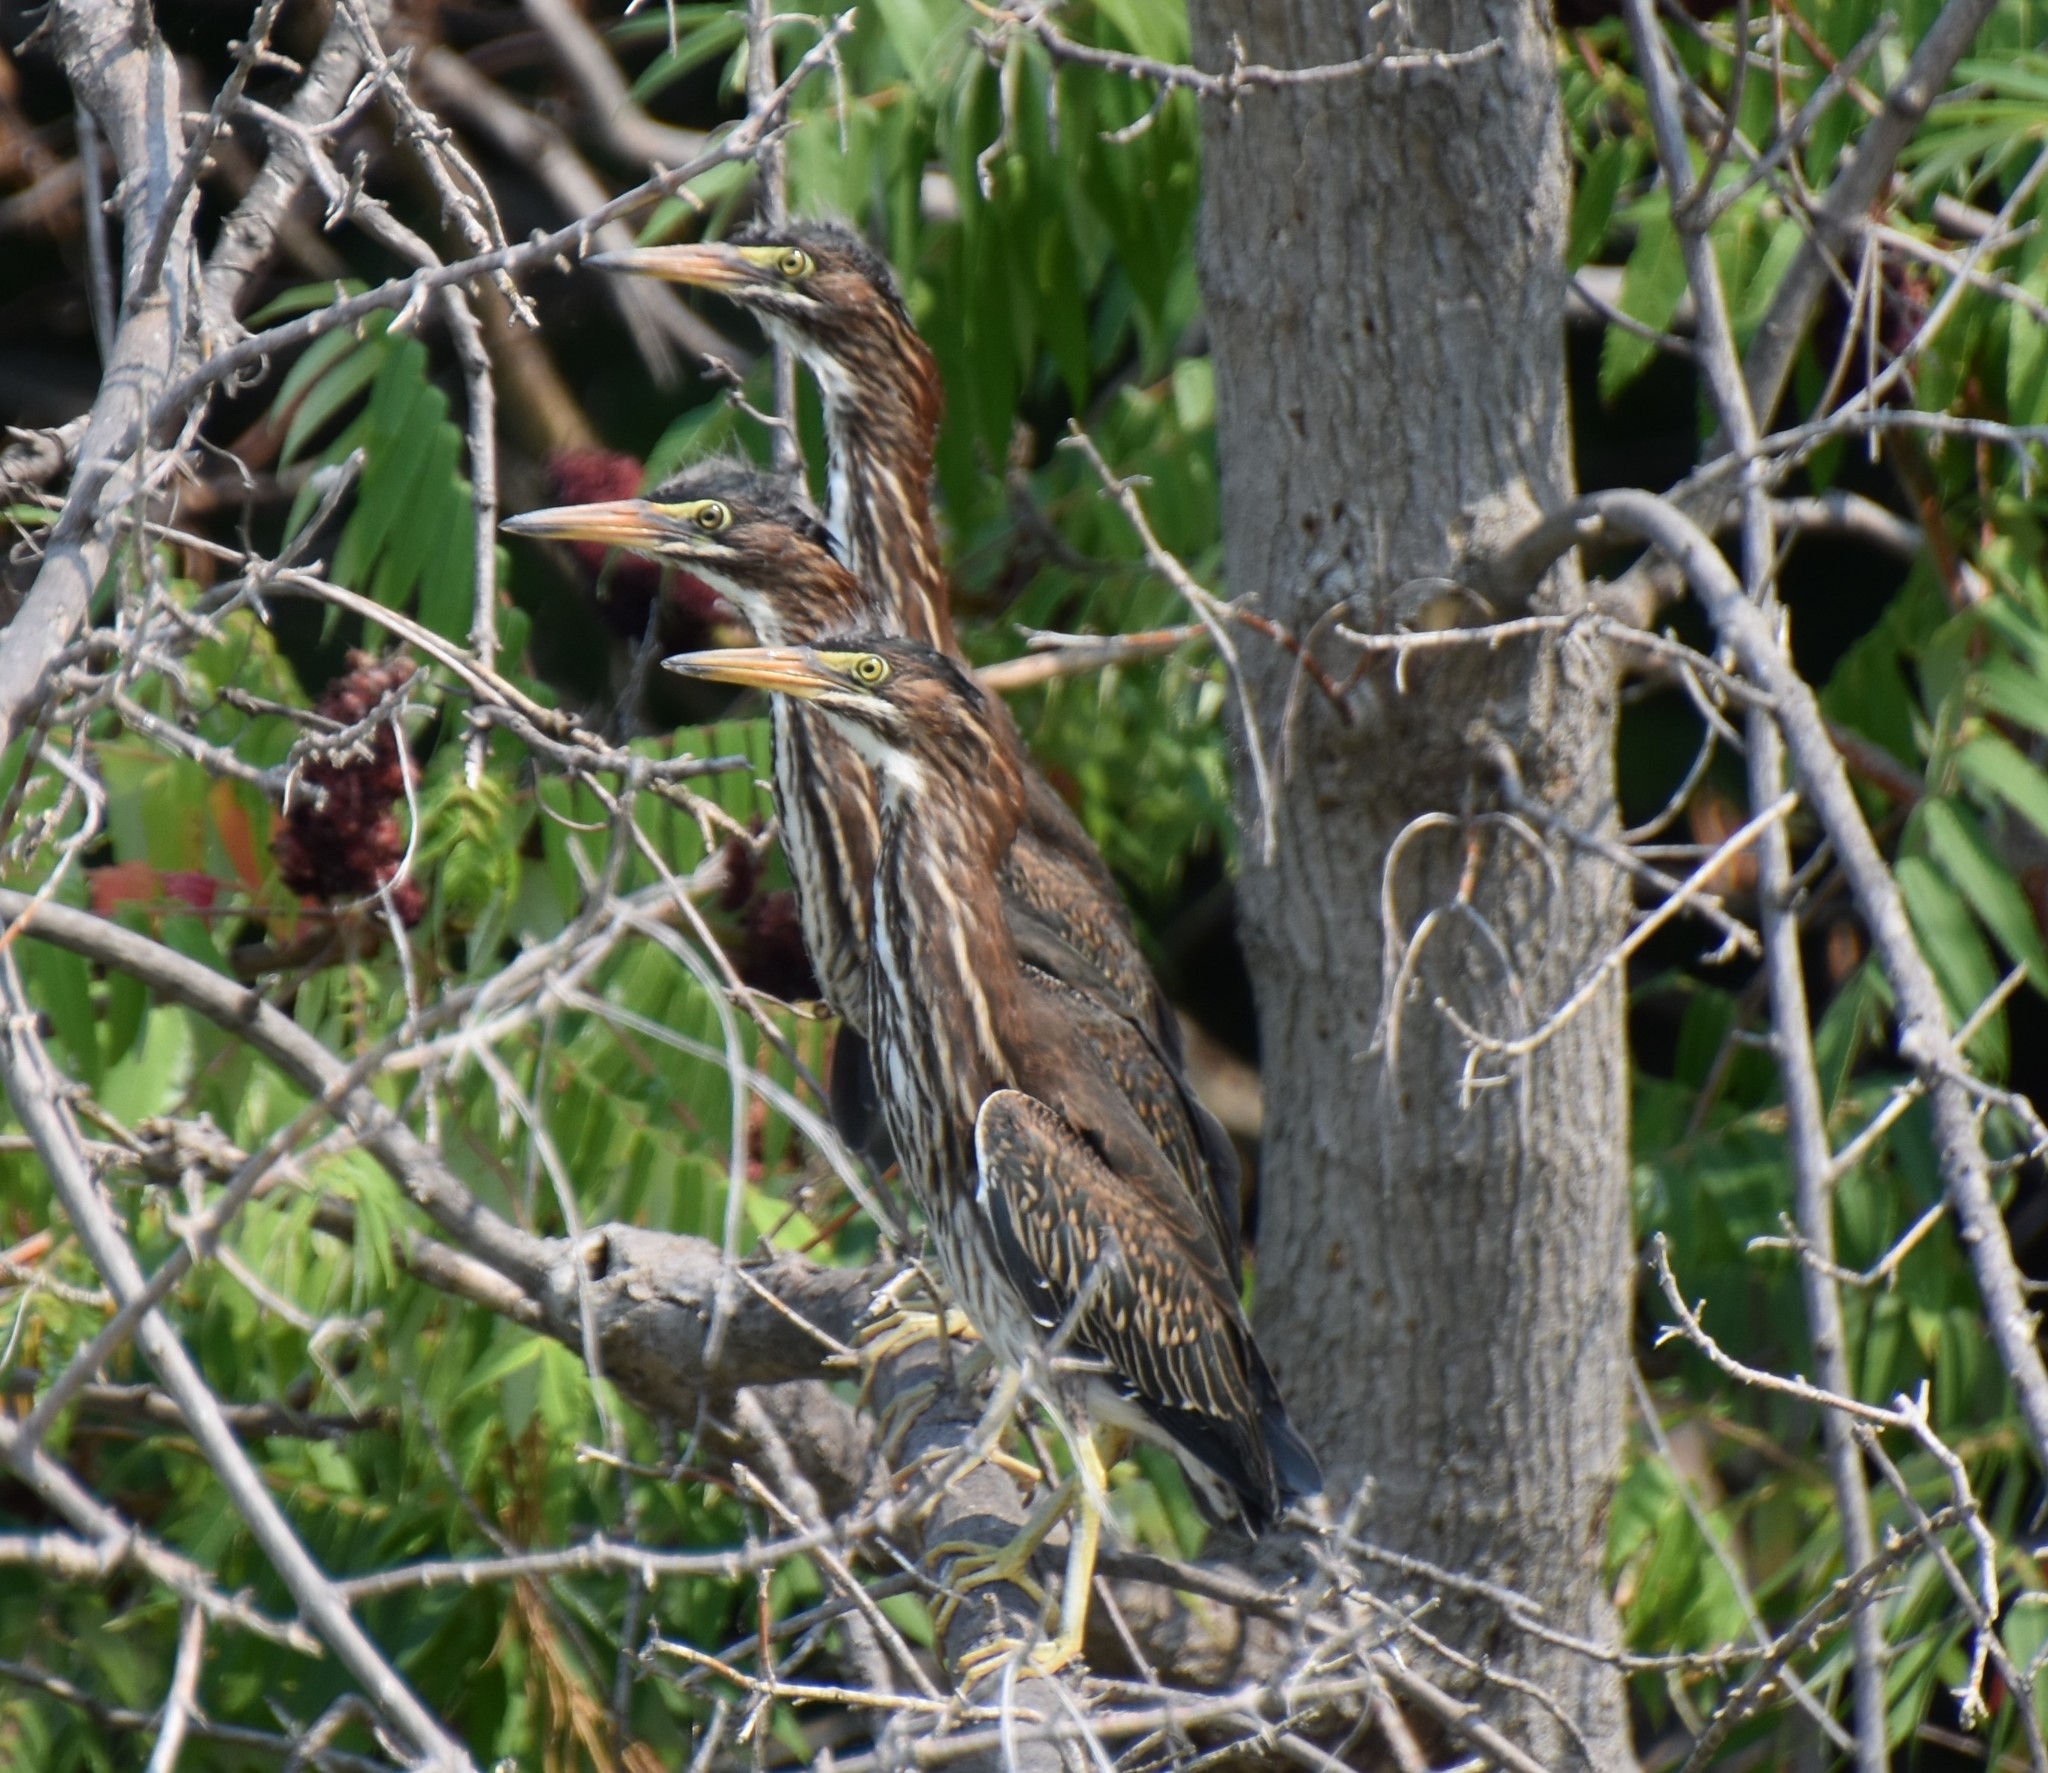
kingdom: Animalia
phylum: Chordata
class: Aves
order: Pelecaniformes
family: Ardeidae
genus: Butorides
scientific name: Butorides virescens
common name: Green heron
